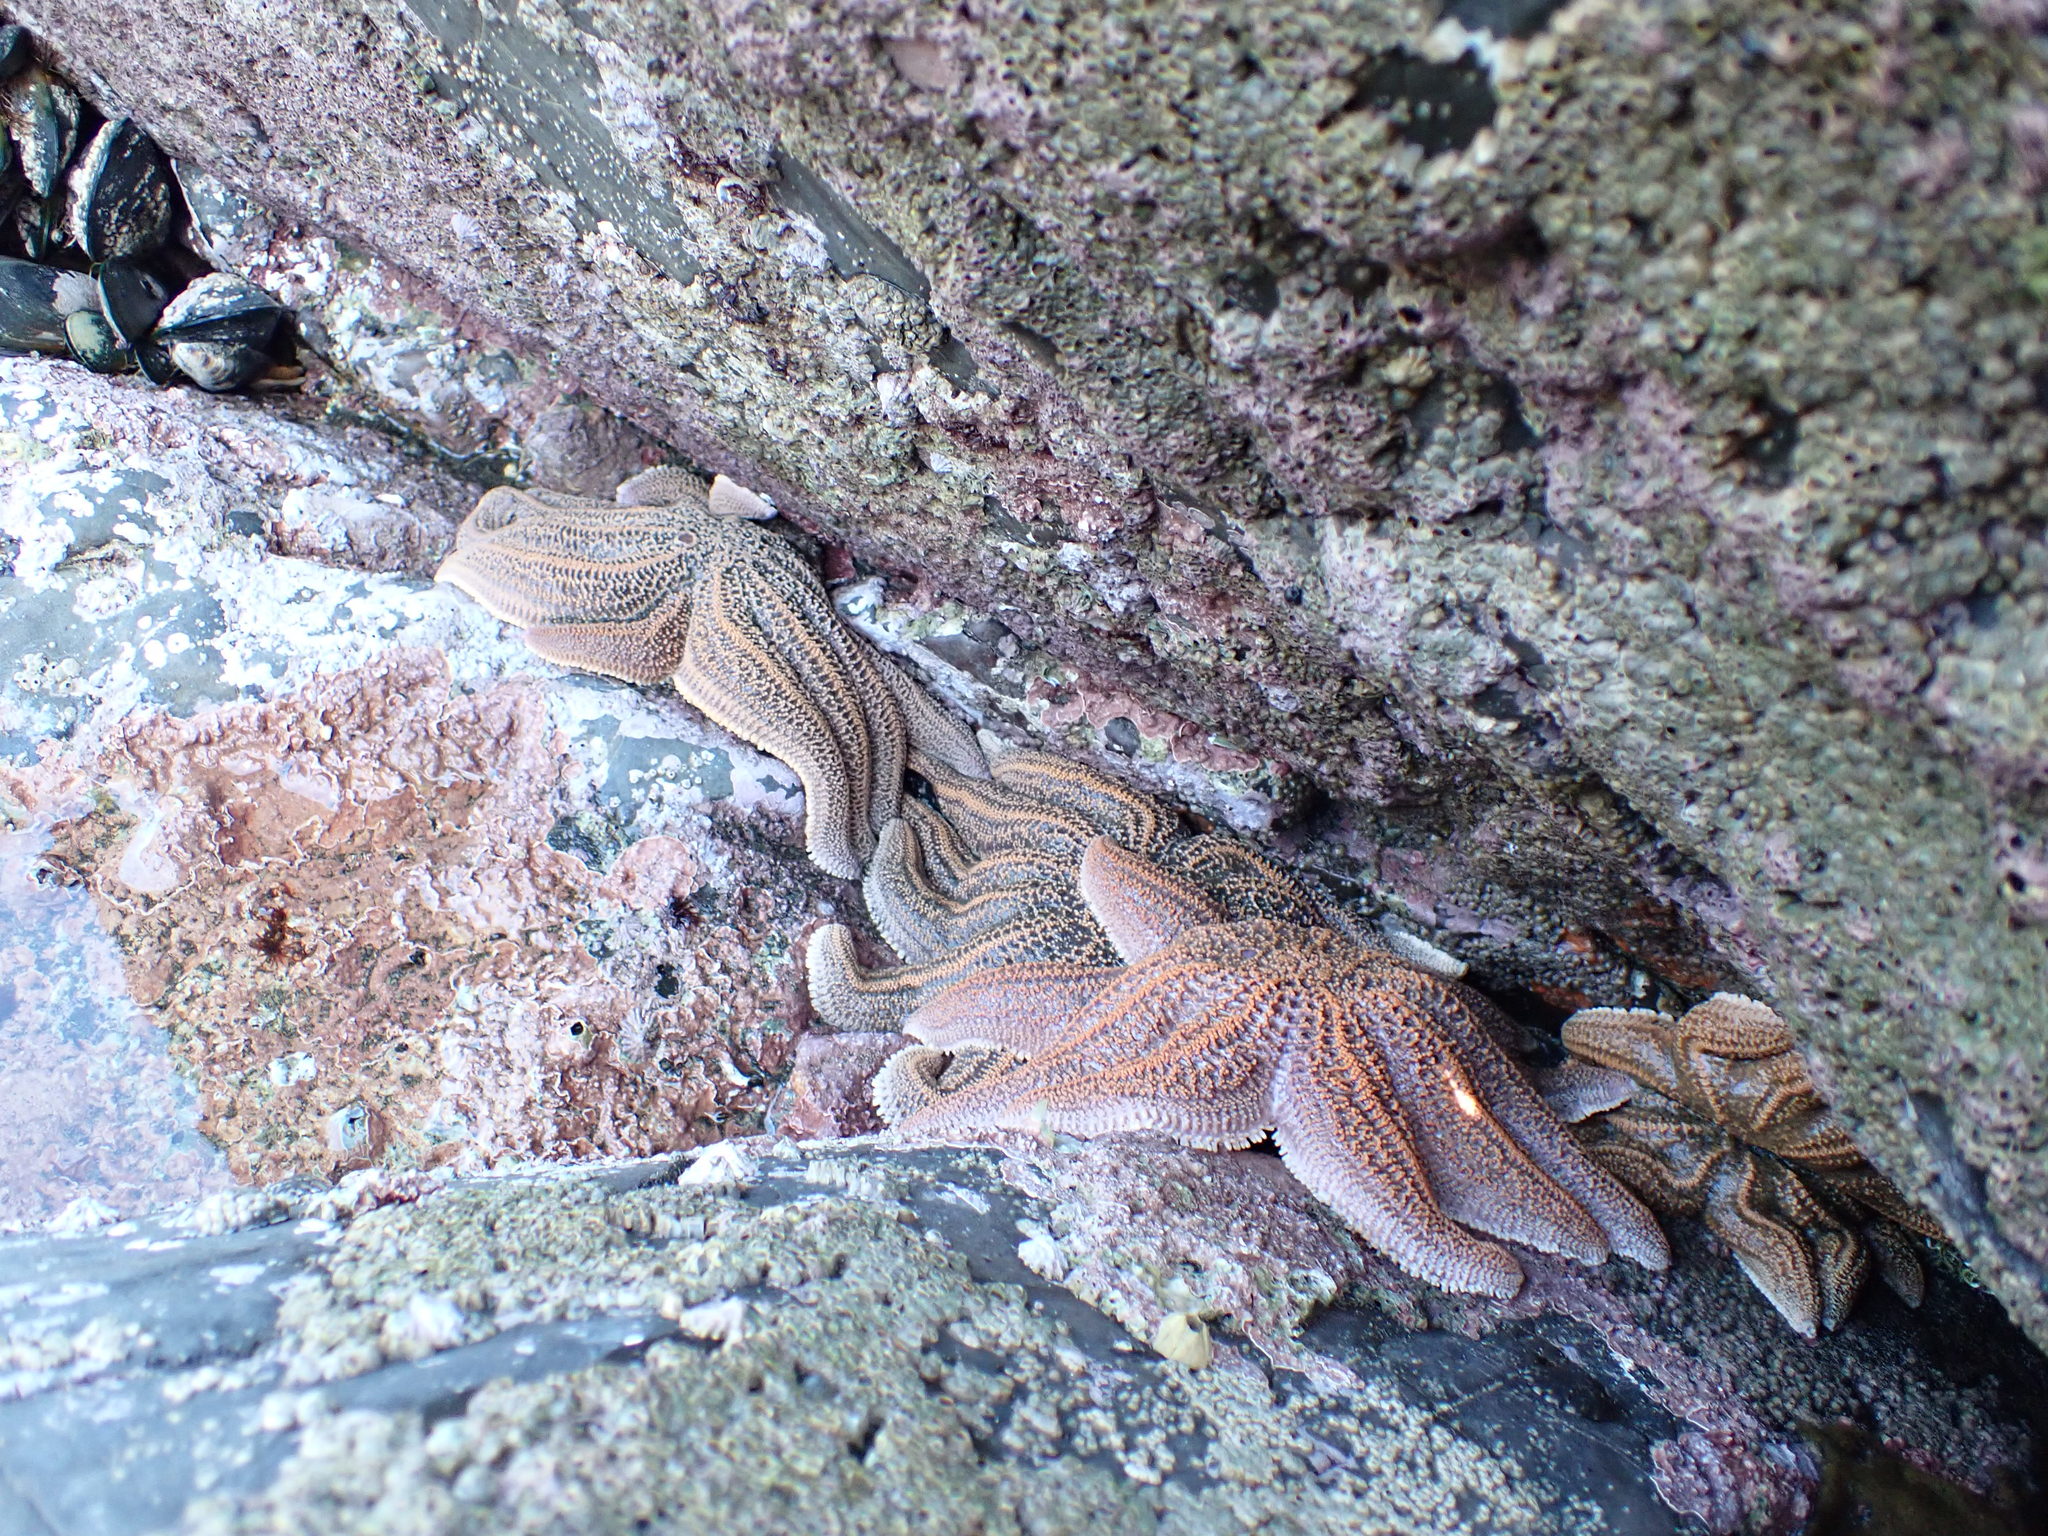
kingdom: Animalia
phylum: Echinodermata
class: Asteroidea
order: Forcipulatida
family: Stichasteridae
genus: Stichaster
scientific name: Stichaster australis
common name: Reef starfish
